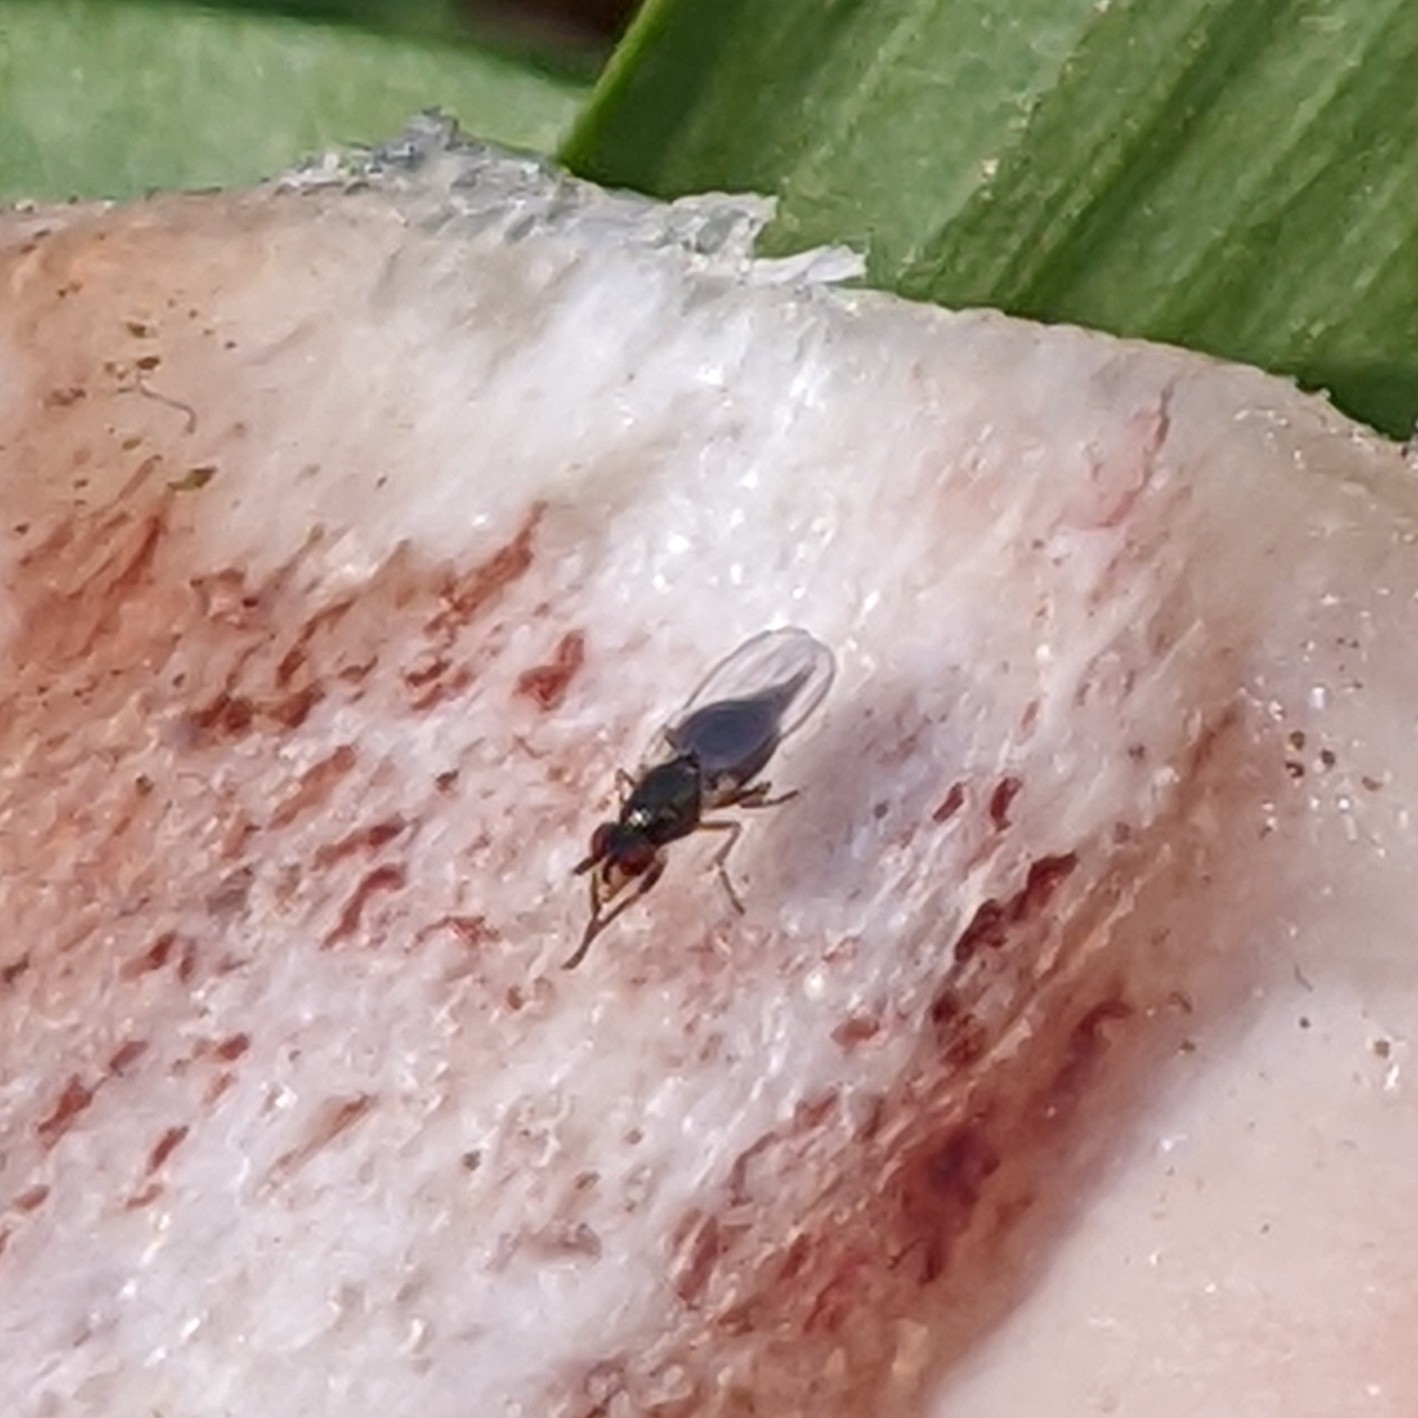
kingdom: Animalia
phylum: Arthropoda
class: Insecta
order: Diptera
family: Piophilidae
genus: Prochyliza
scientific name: Prochyliza xanthostoma
